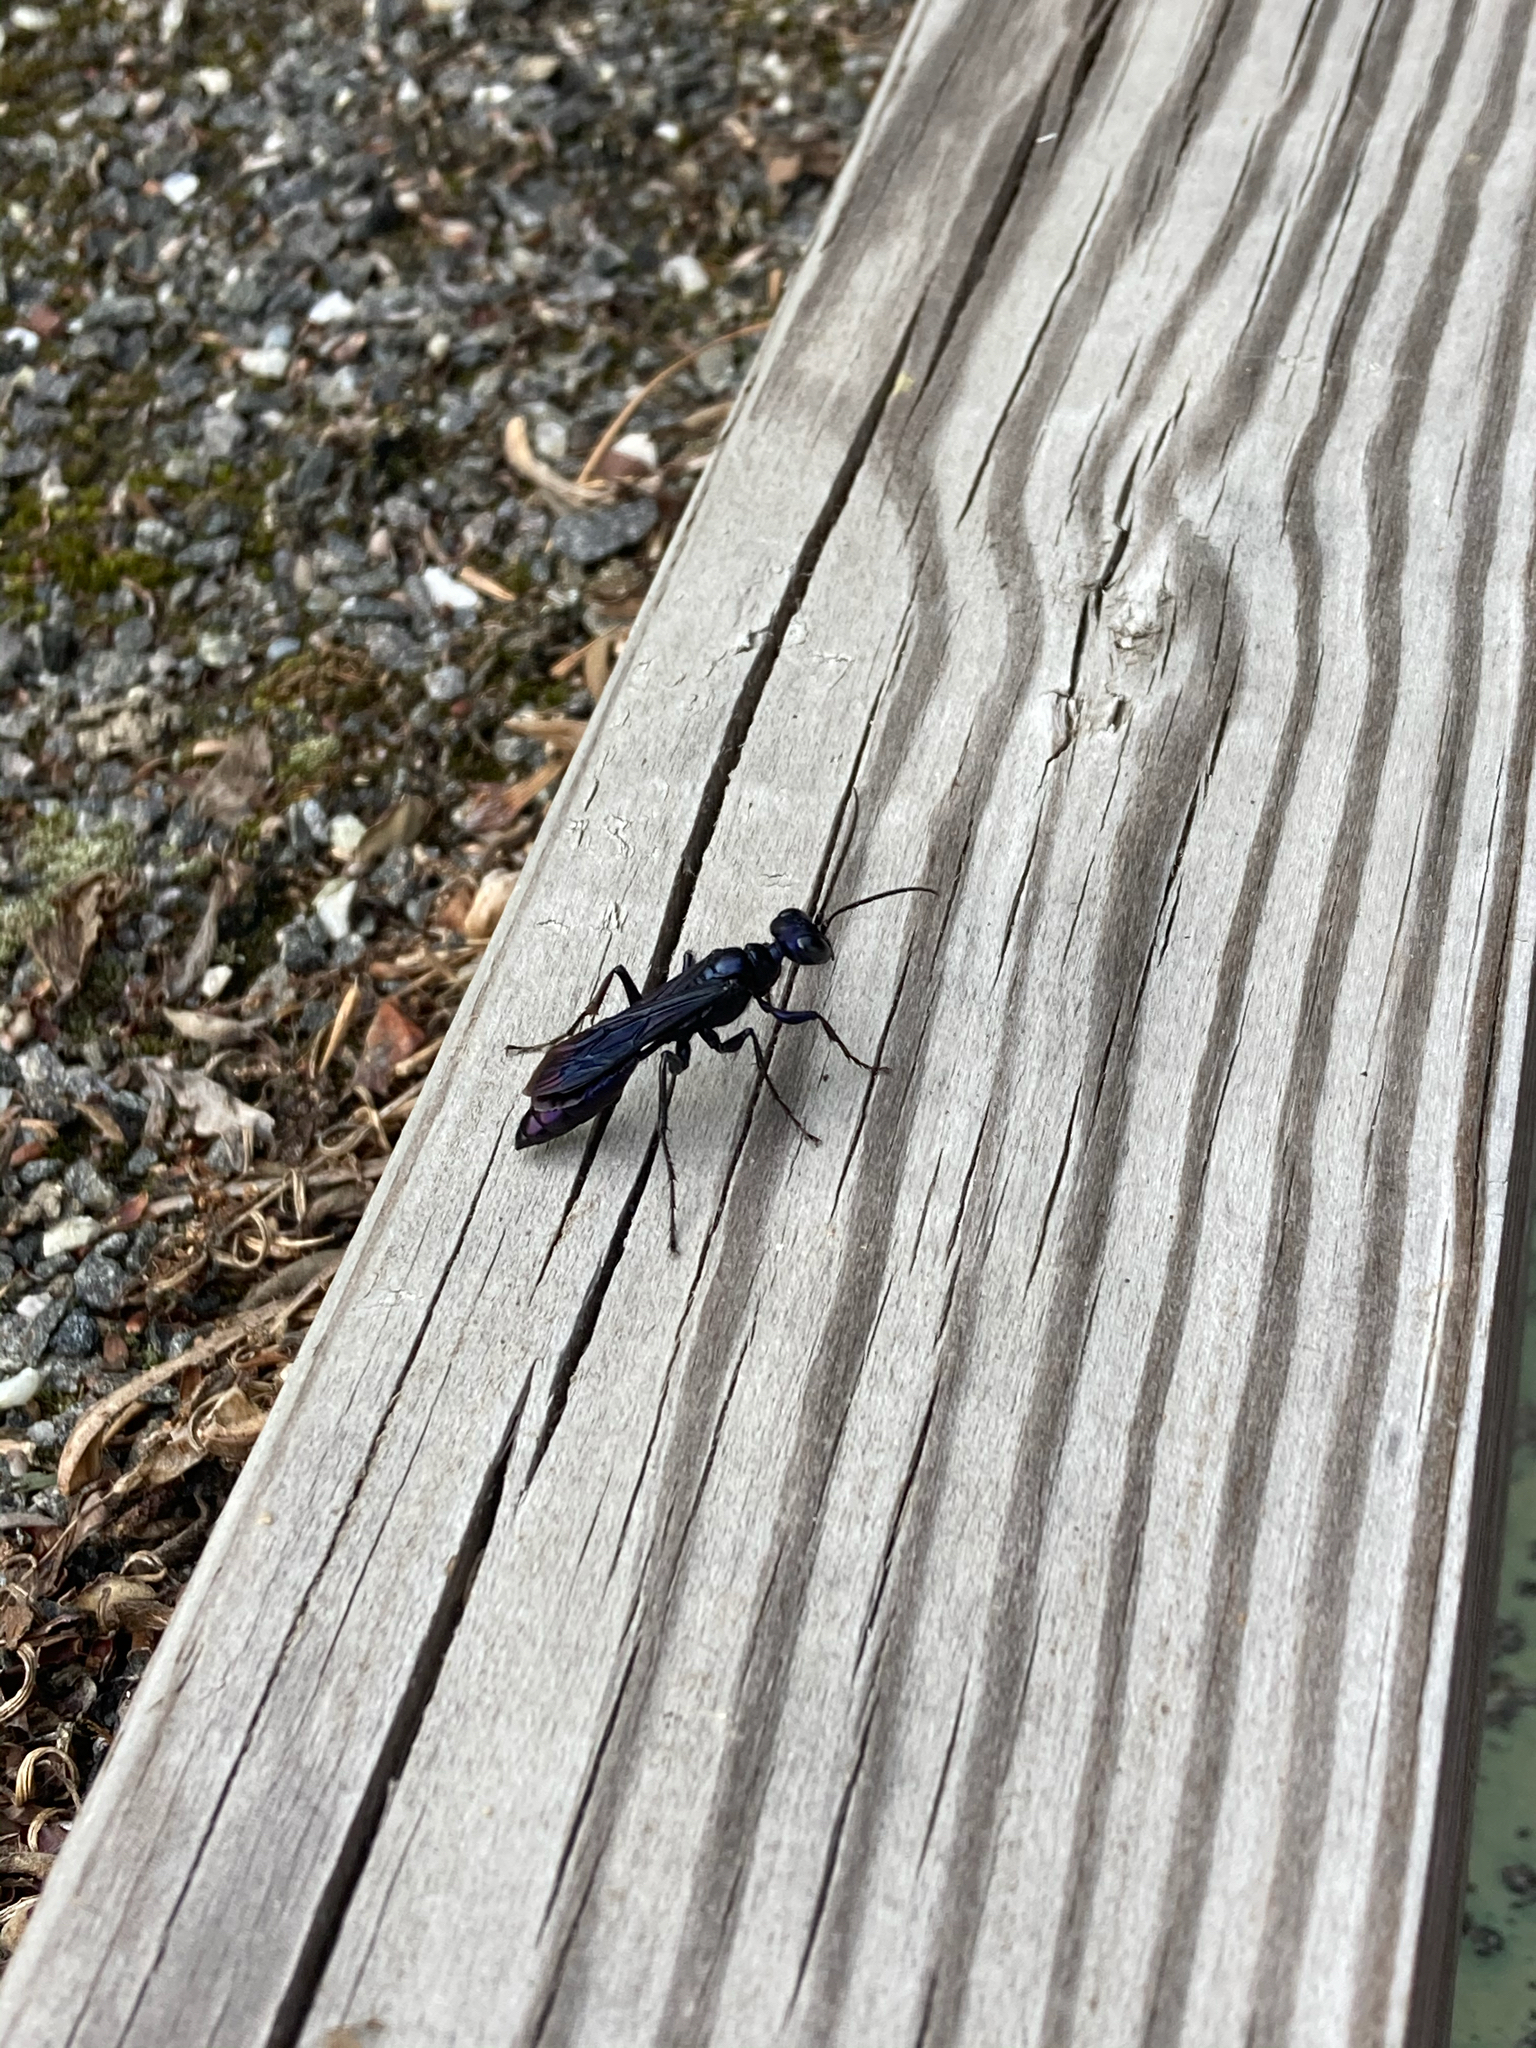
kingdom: Animalia
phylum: Arthropoda
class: Insecta
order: Hymenoptera
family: Sphecidae
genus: Chlorion
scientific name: Chlorion aerarium
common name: Steel-blue cricket hunter
